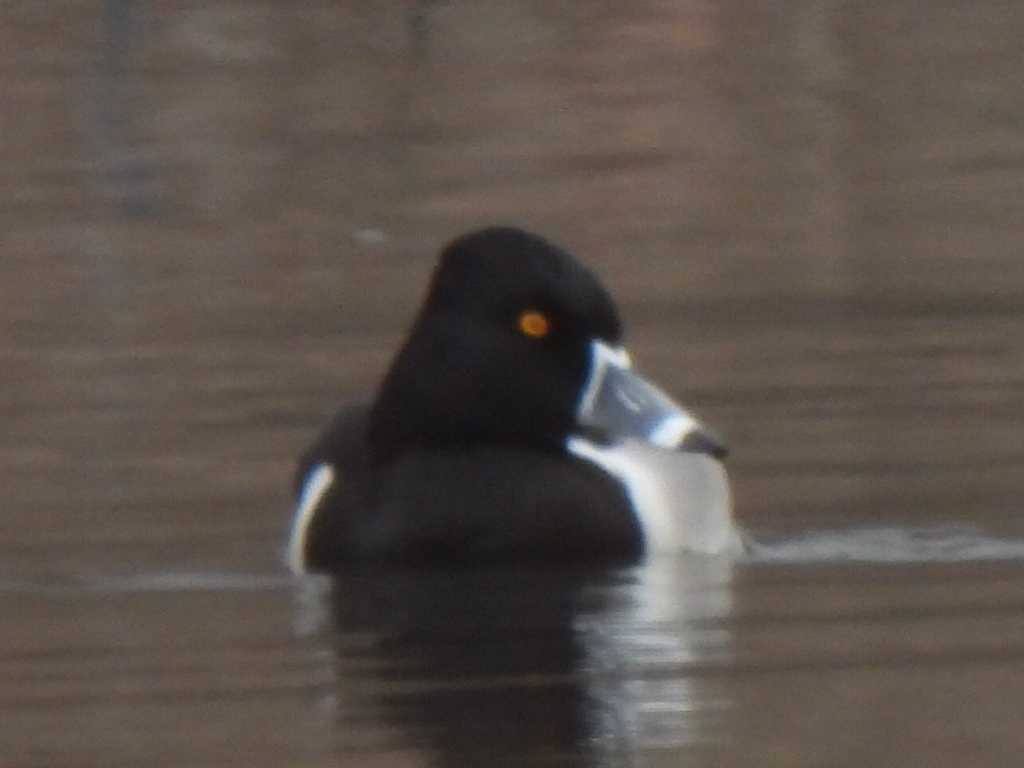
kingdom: Animalia
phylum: Chordata
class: Aves
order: Anseriformes
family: Anatidae
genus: Aythya
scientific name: Aythya collaris
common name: Ring-necked duck
